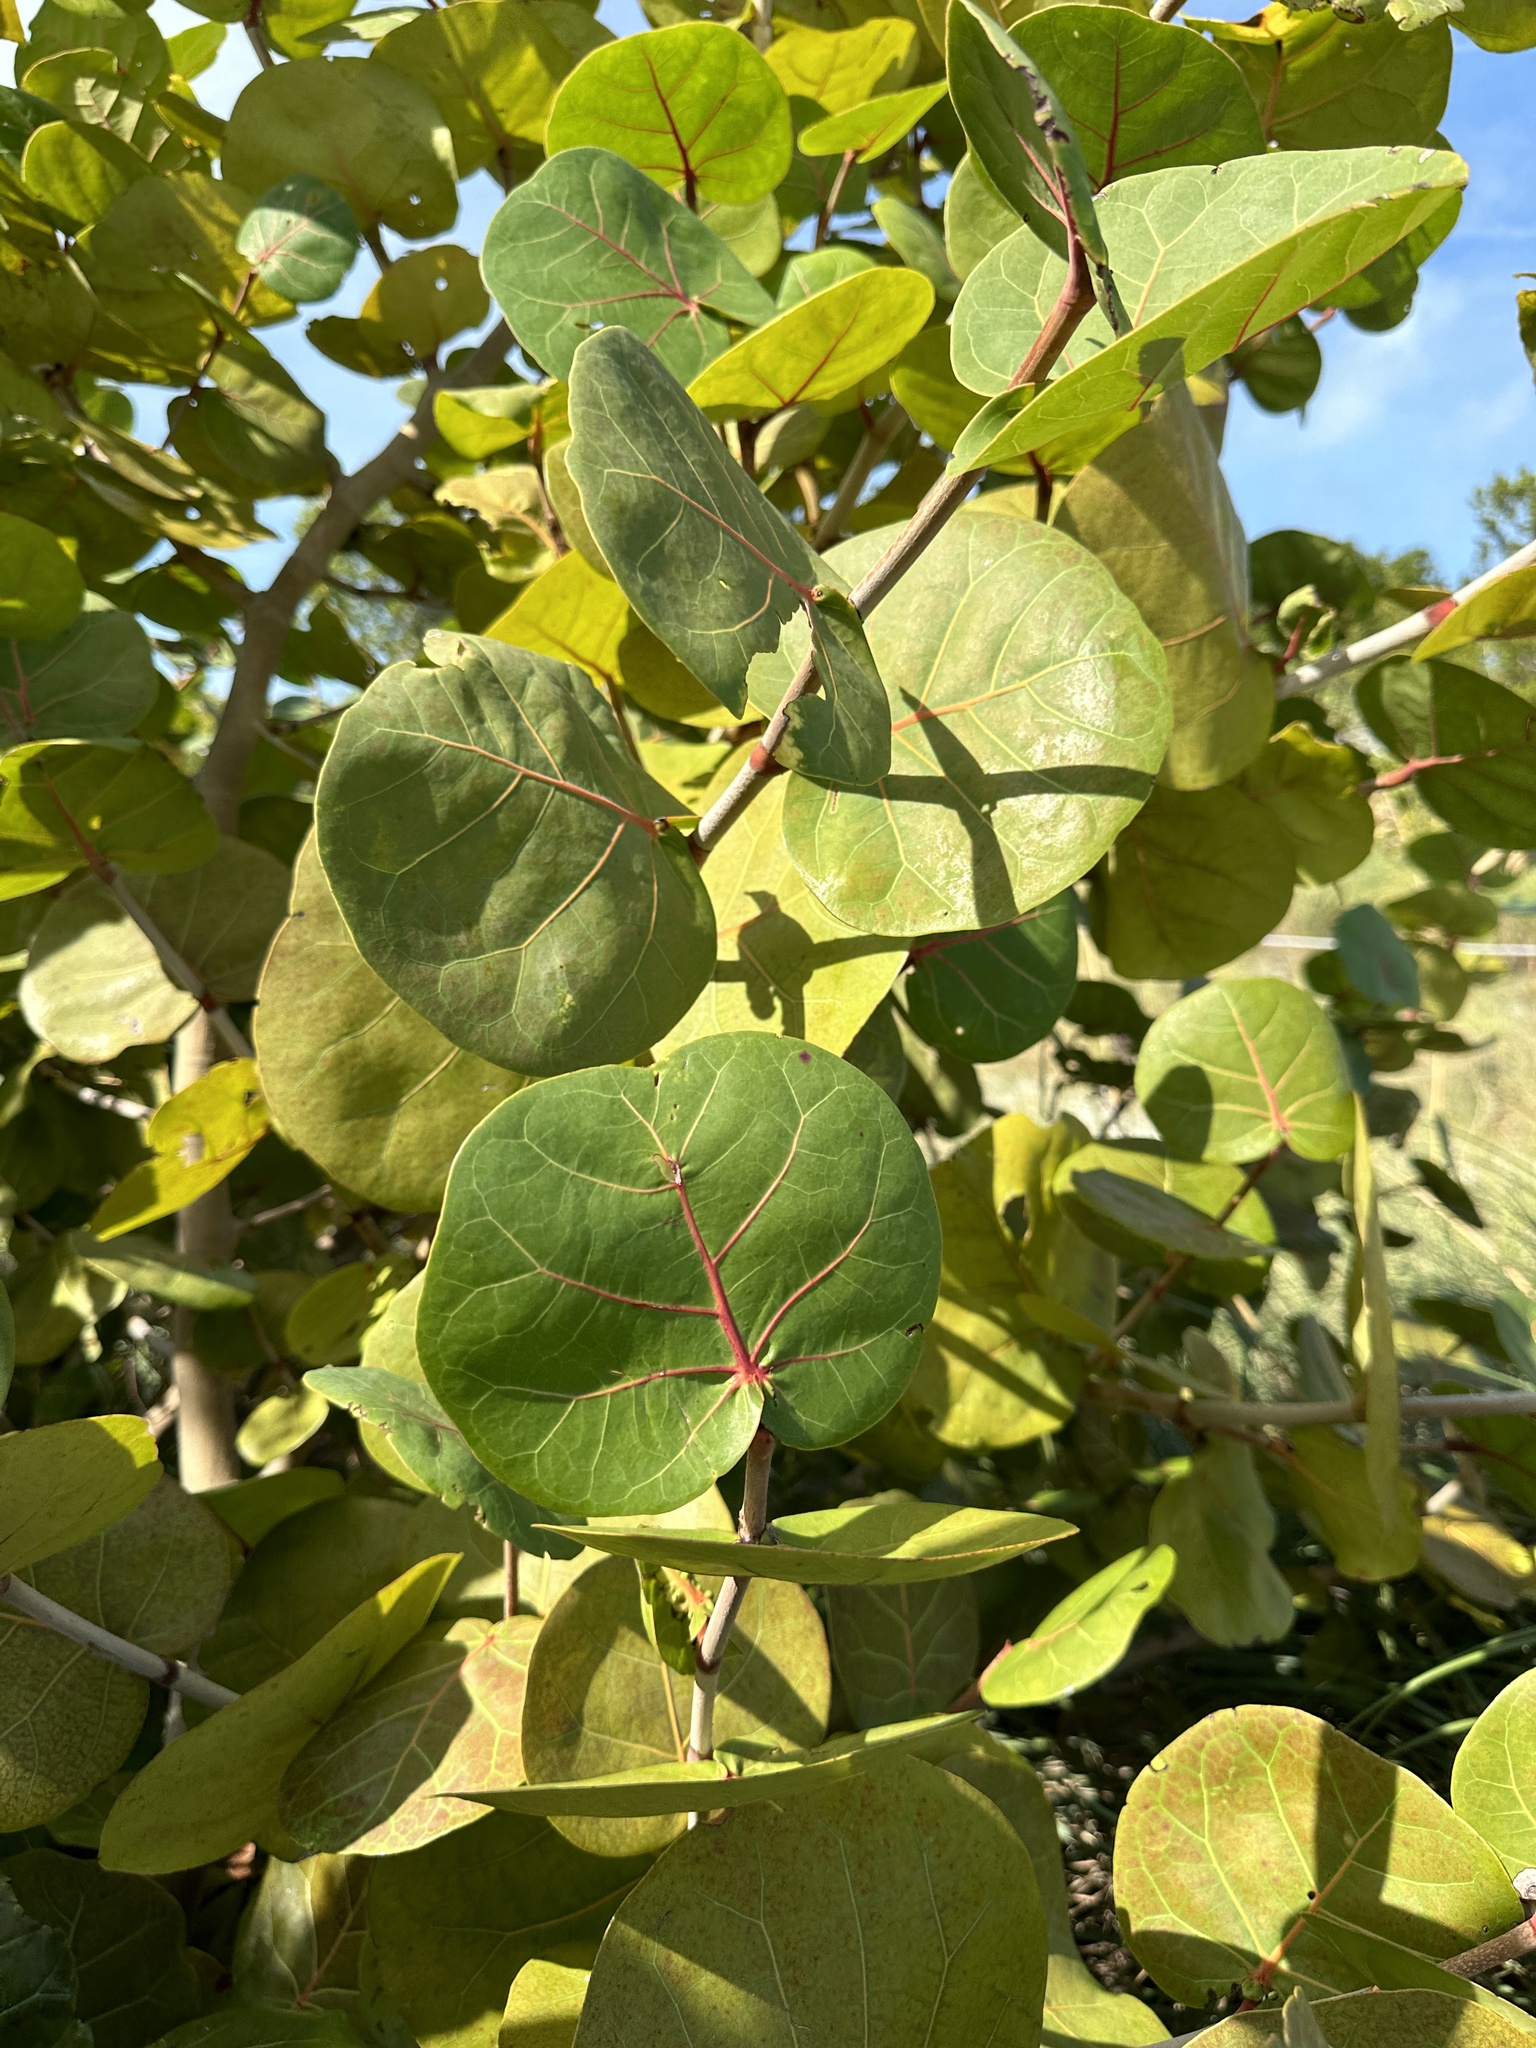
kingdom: Plantae
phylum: Tracheophyta
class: Magnoliopsida
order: Caryophyllales
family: Polygonaceae
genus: Coccoloba
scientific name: Coccoloba uvifera
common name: Seagrape
